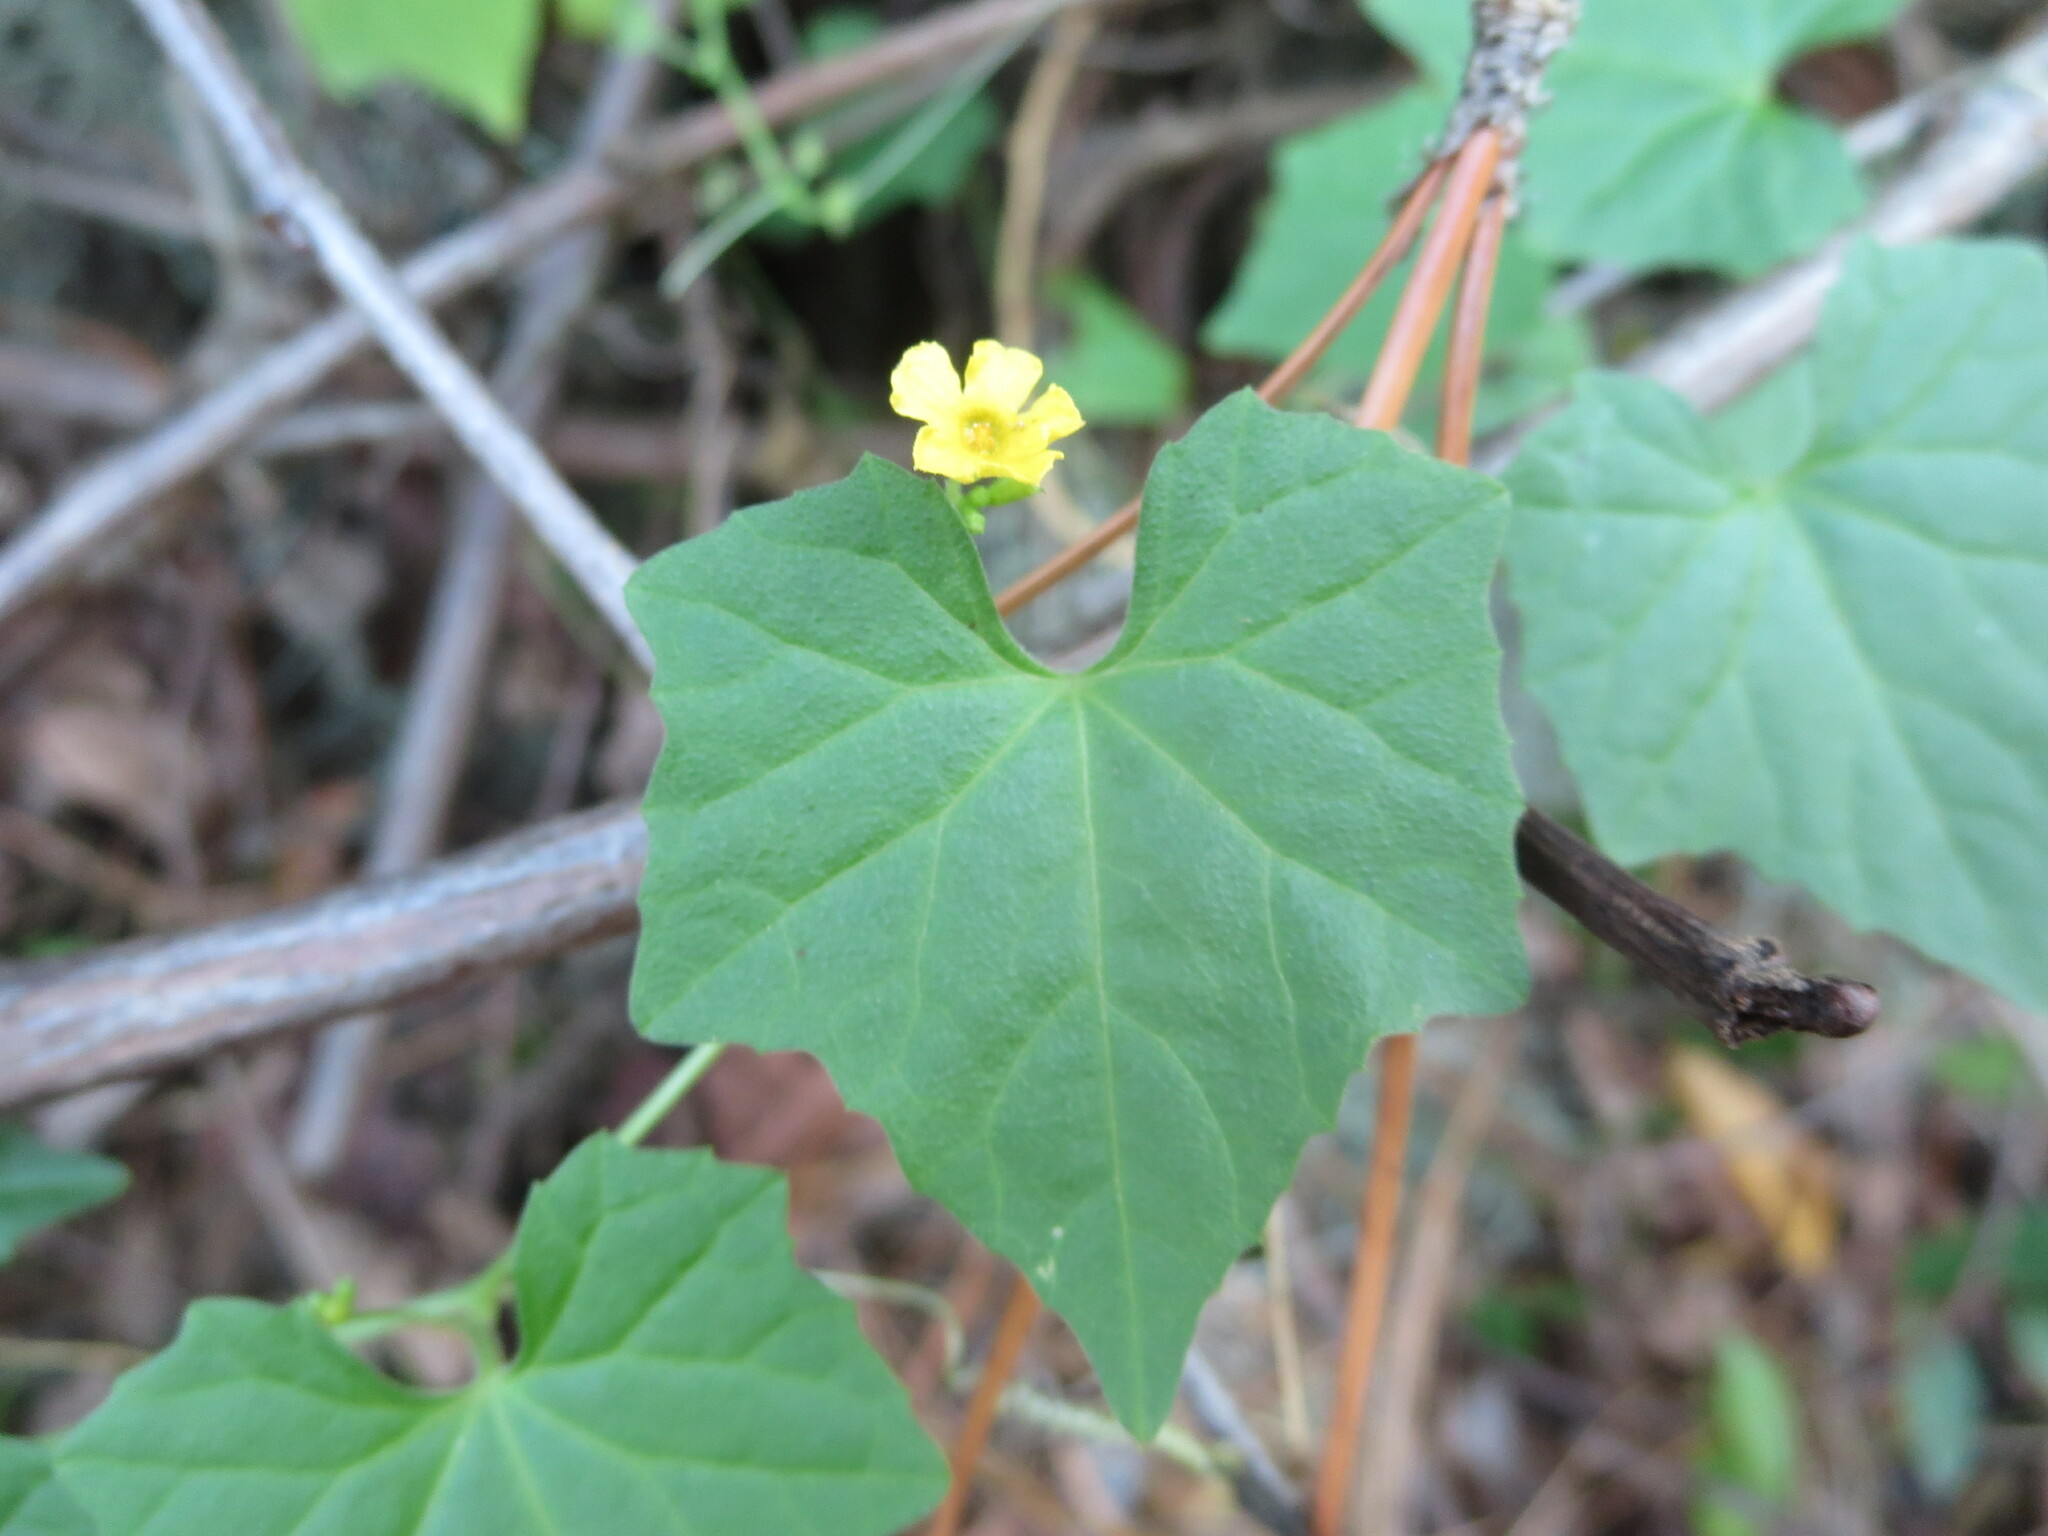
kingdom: Plantae
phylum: Tracheophyta
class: Magnoliopsida
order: Cucurbitales
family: Cucurbitaceae
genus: Melothria
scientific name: Melothria pendula
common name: Creeping-cucumber
